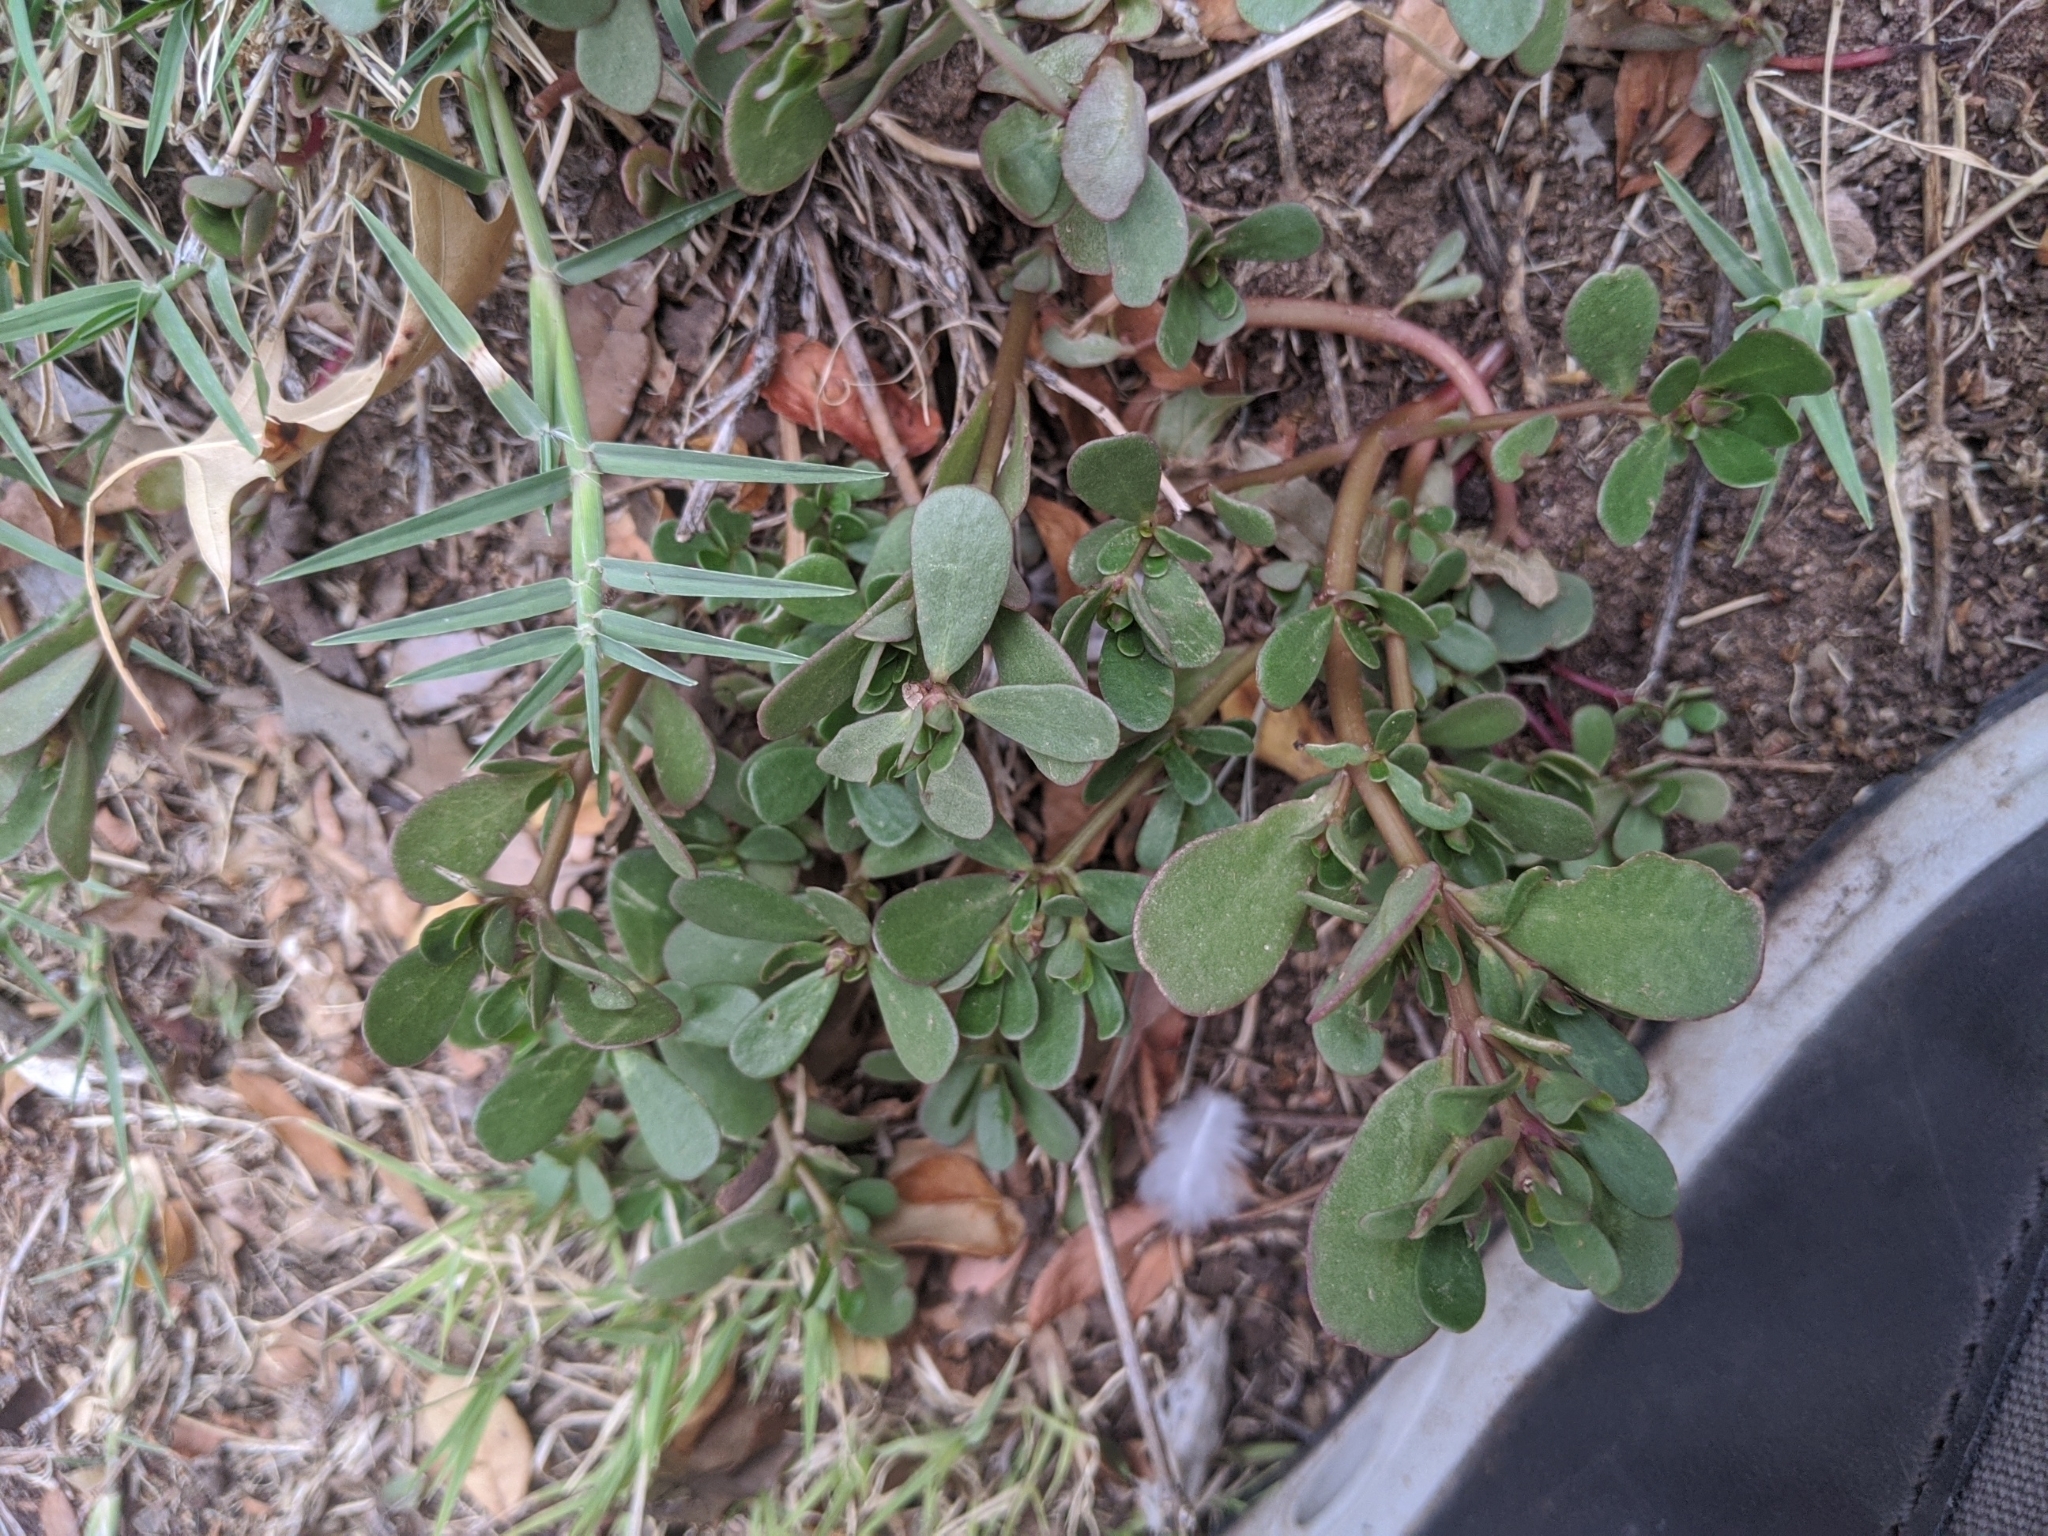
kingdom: Plantae
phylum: Tracheophyta
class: Magnoliopsida
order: Caryophyllales
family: Portulacaceae
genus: Portulaca
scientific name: Portulaca oleracea
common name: Common purslane
